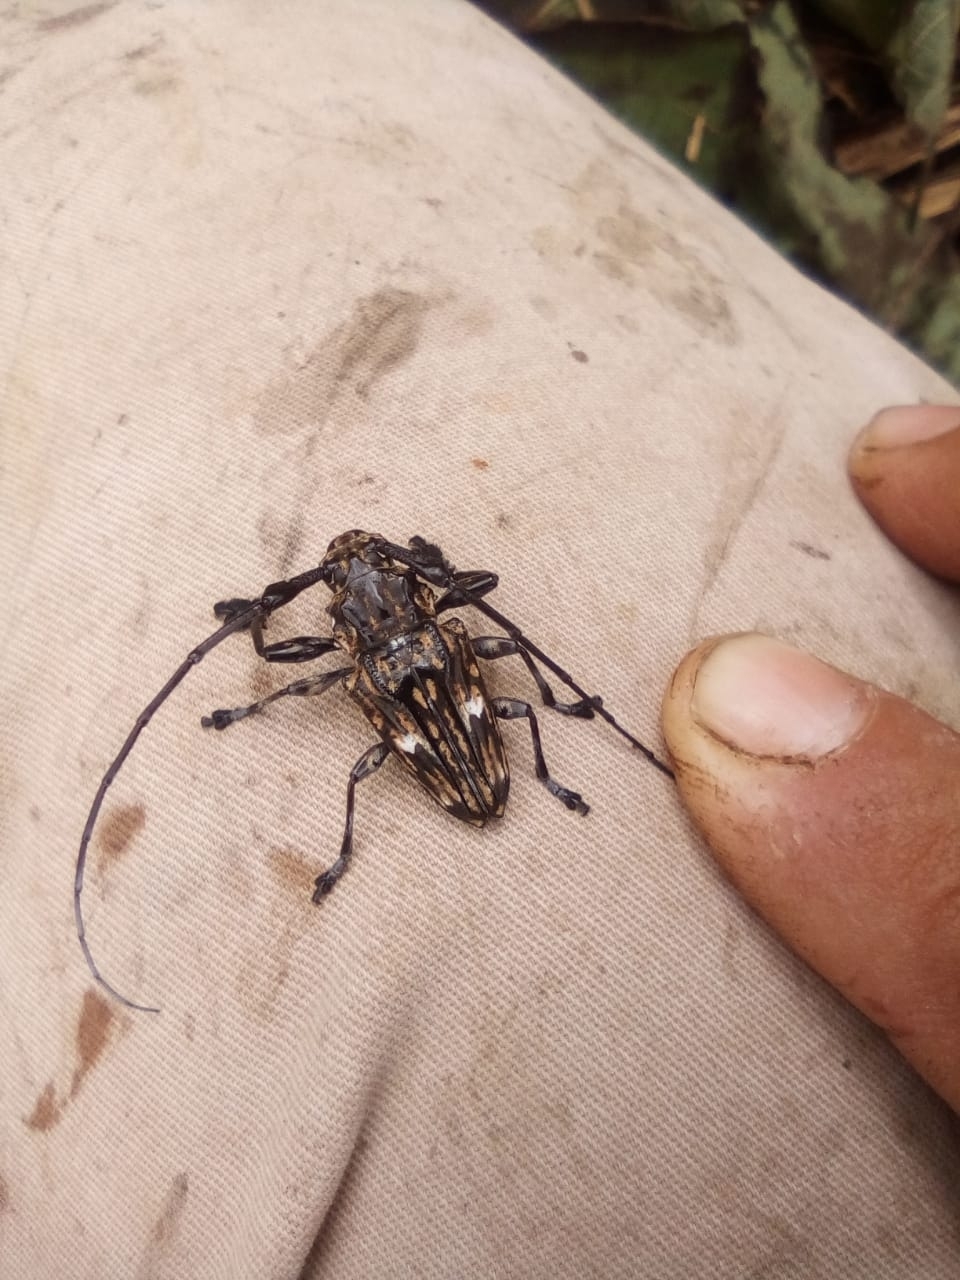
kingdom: Animalia
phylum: Arthropoda
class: Insecta
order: Coleoptera
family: Cerambycidae
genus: Steirastoma
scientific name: Steirastoma histrionicum
